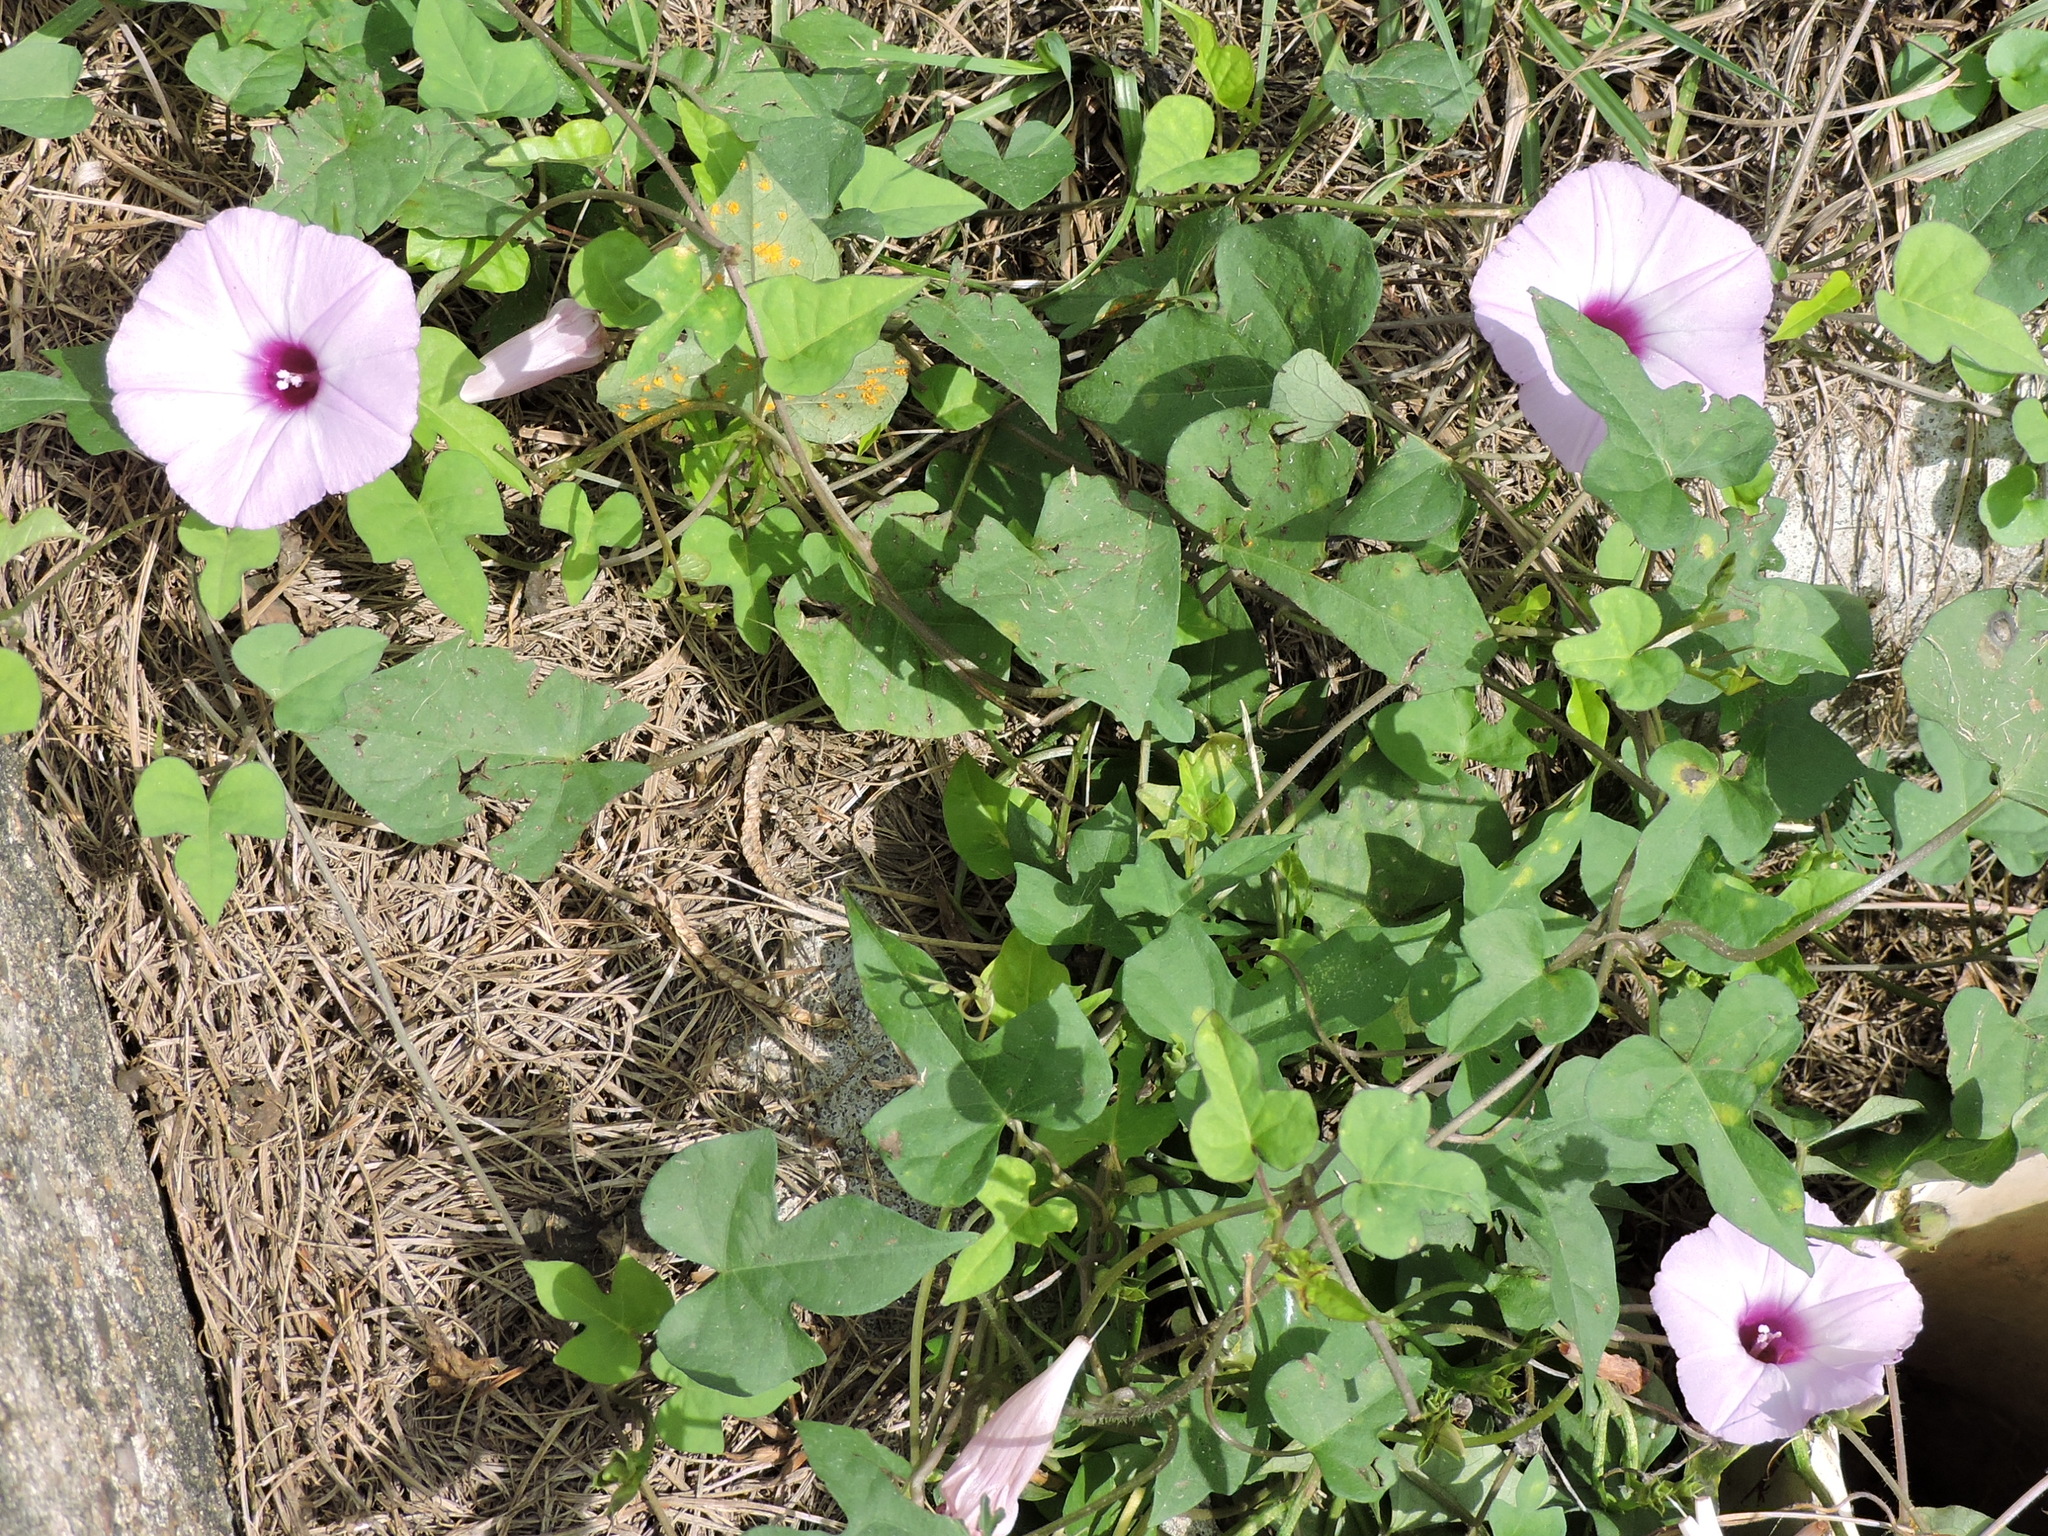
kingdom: Plantae
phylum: Tracheophyta
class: Magnoliopsida
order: Solanales
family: Convolvulaceae
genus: Ipomoea
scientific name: Ipomoea cordatotriloba
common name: Cotton morning glory
